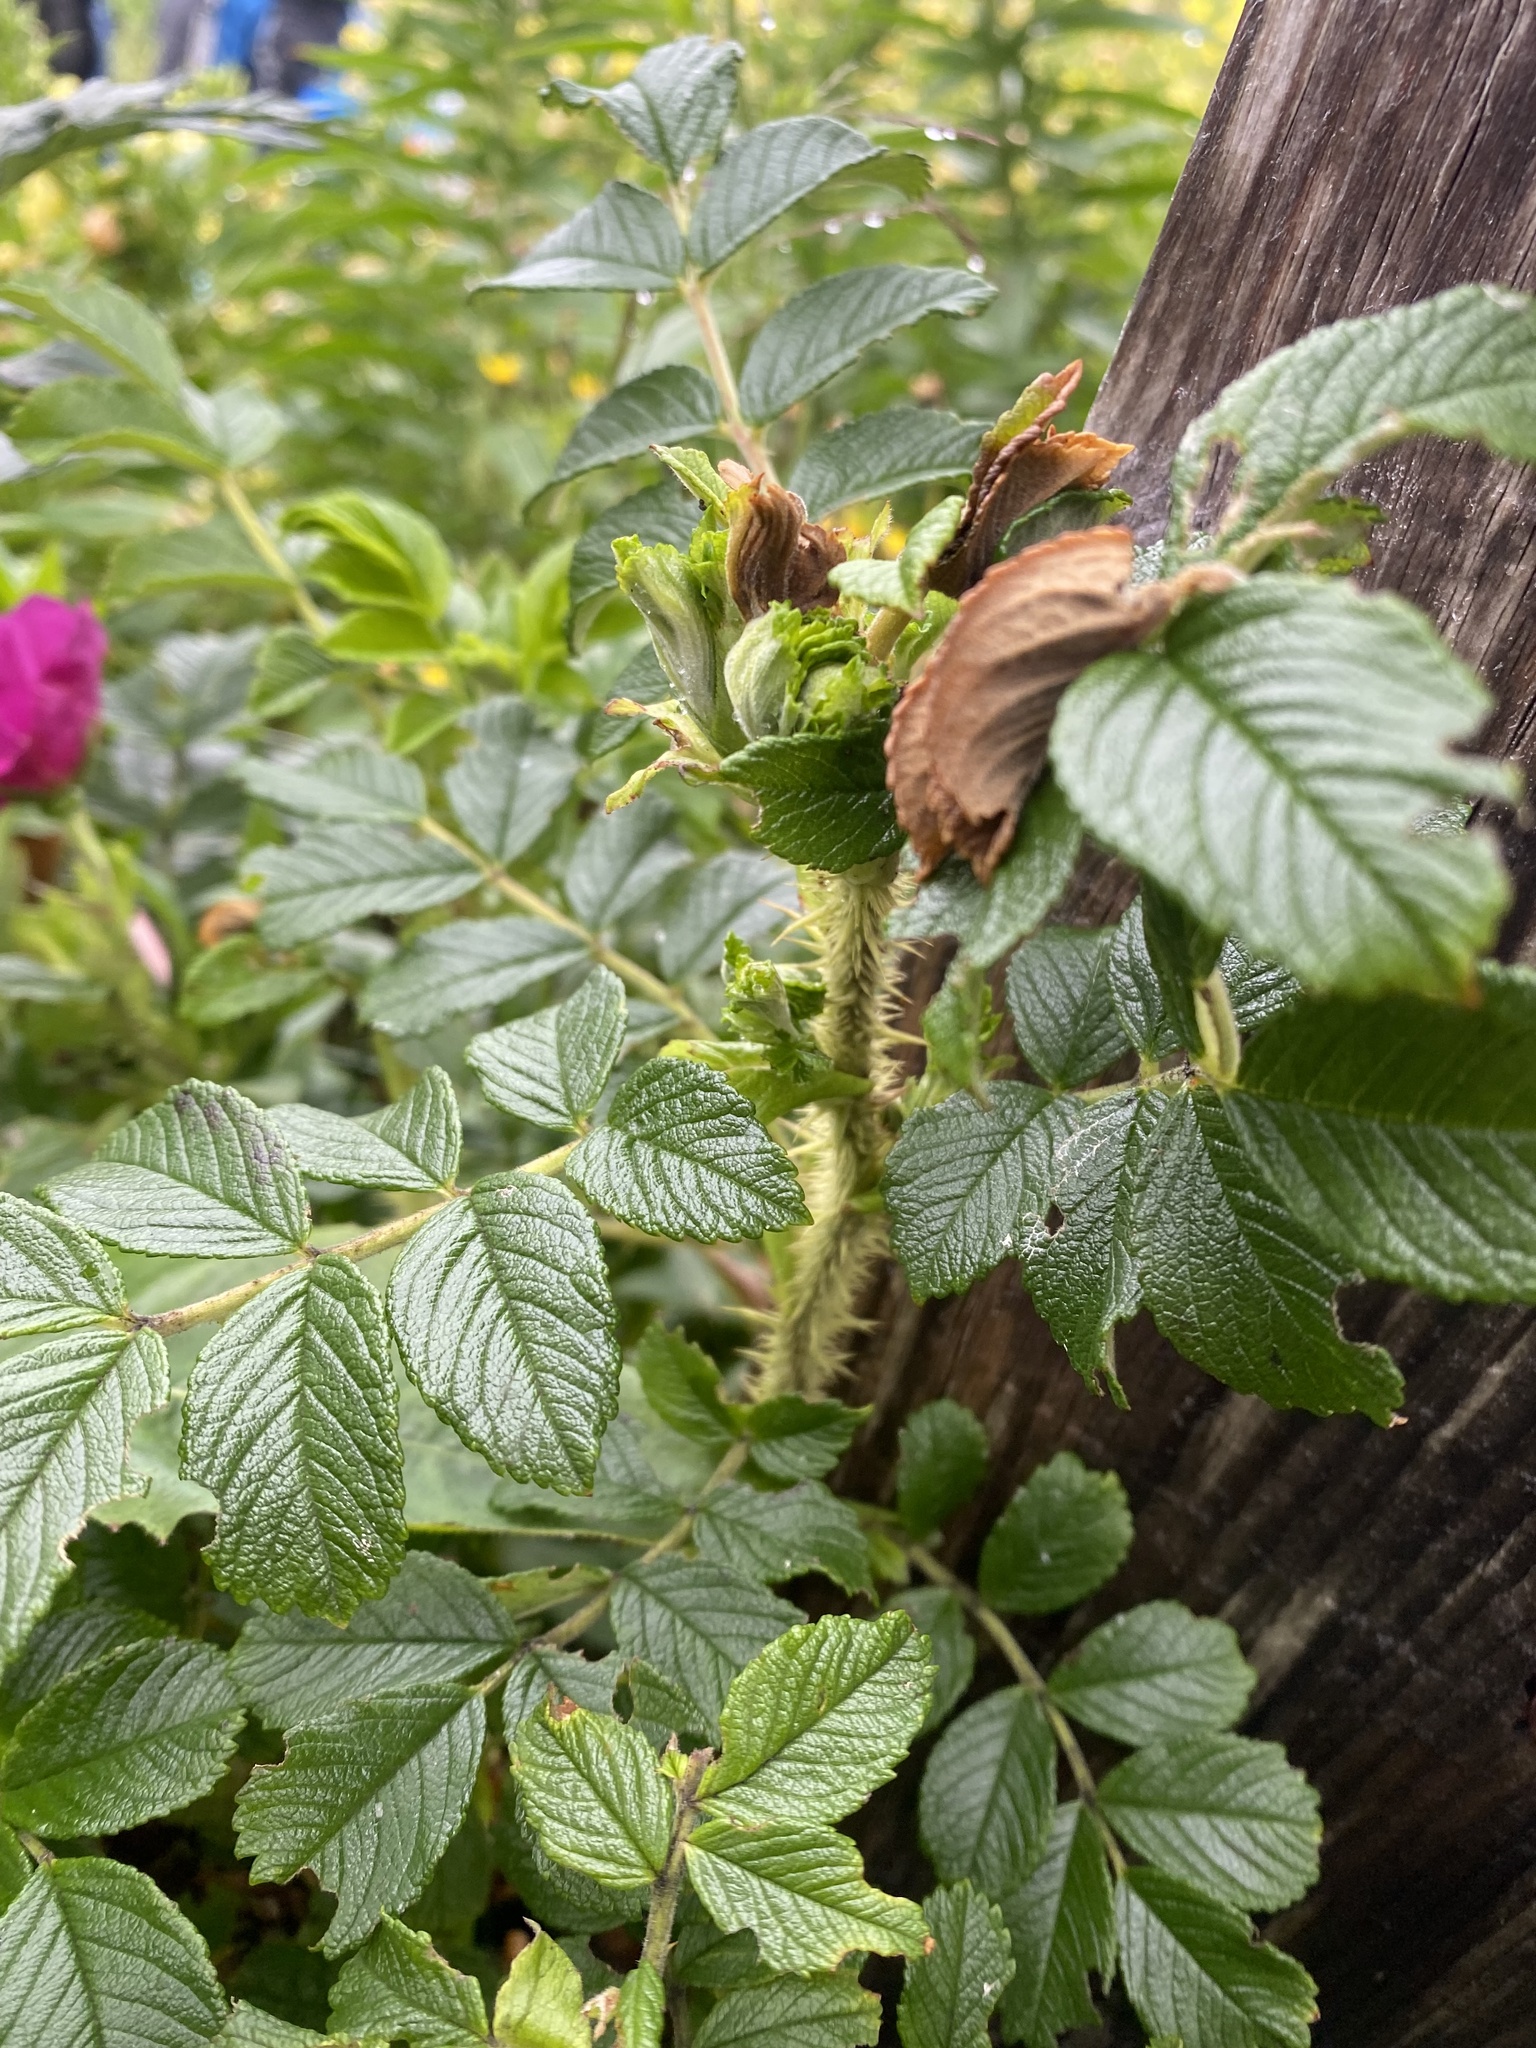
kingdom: Plantae
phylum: Tracheophyta
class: Magnoliopsida
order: Rosales
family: Rosaceae
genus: Rosa
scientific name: Rosa rugosa
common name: Japanese rose
